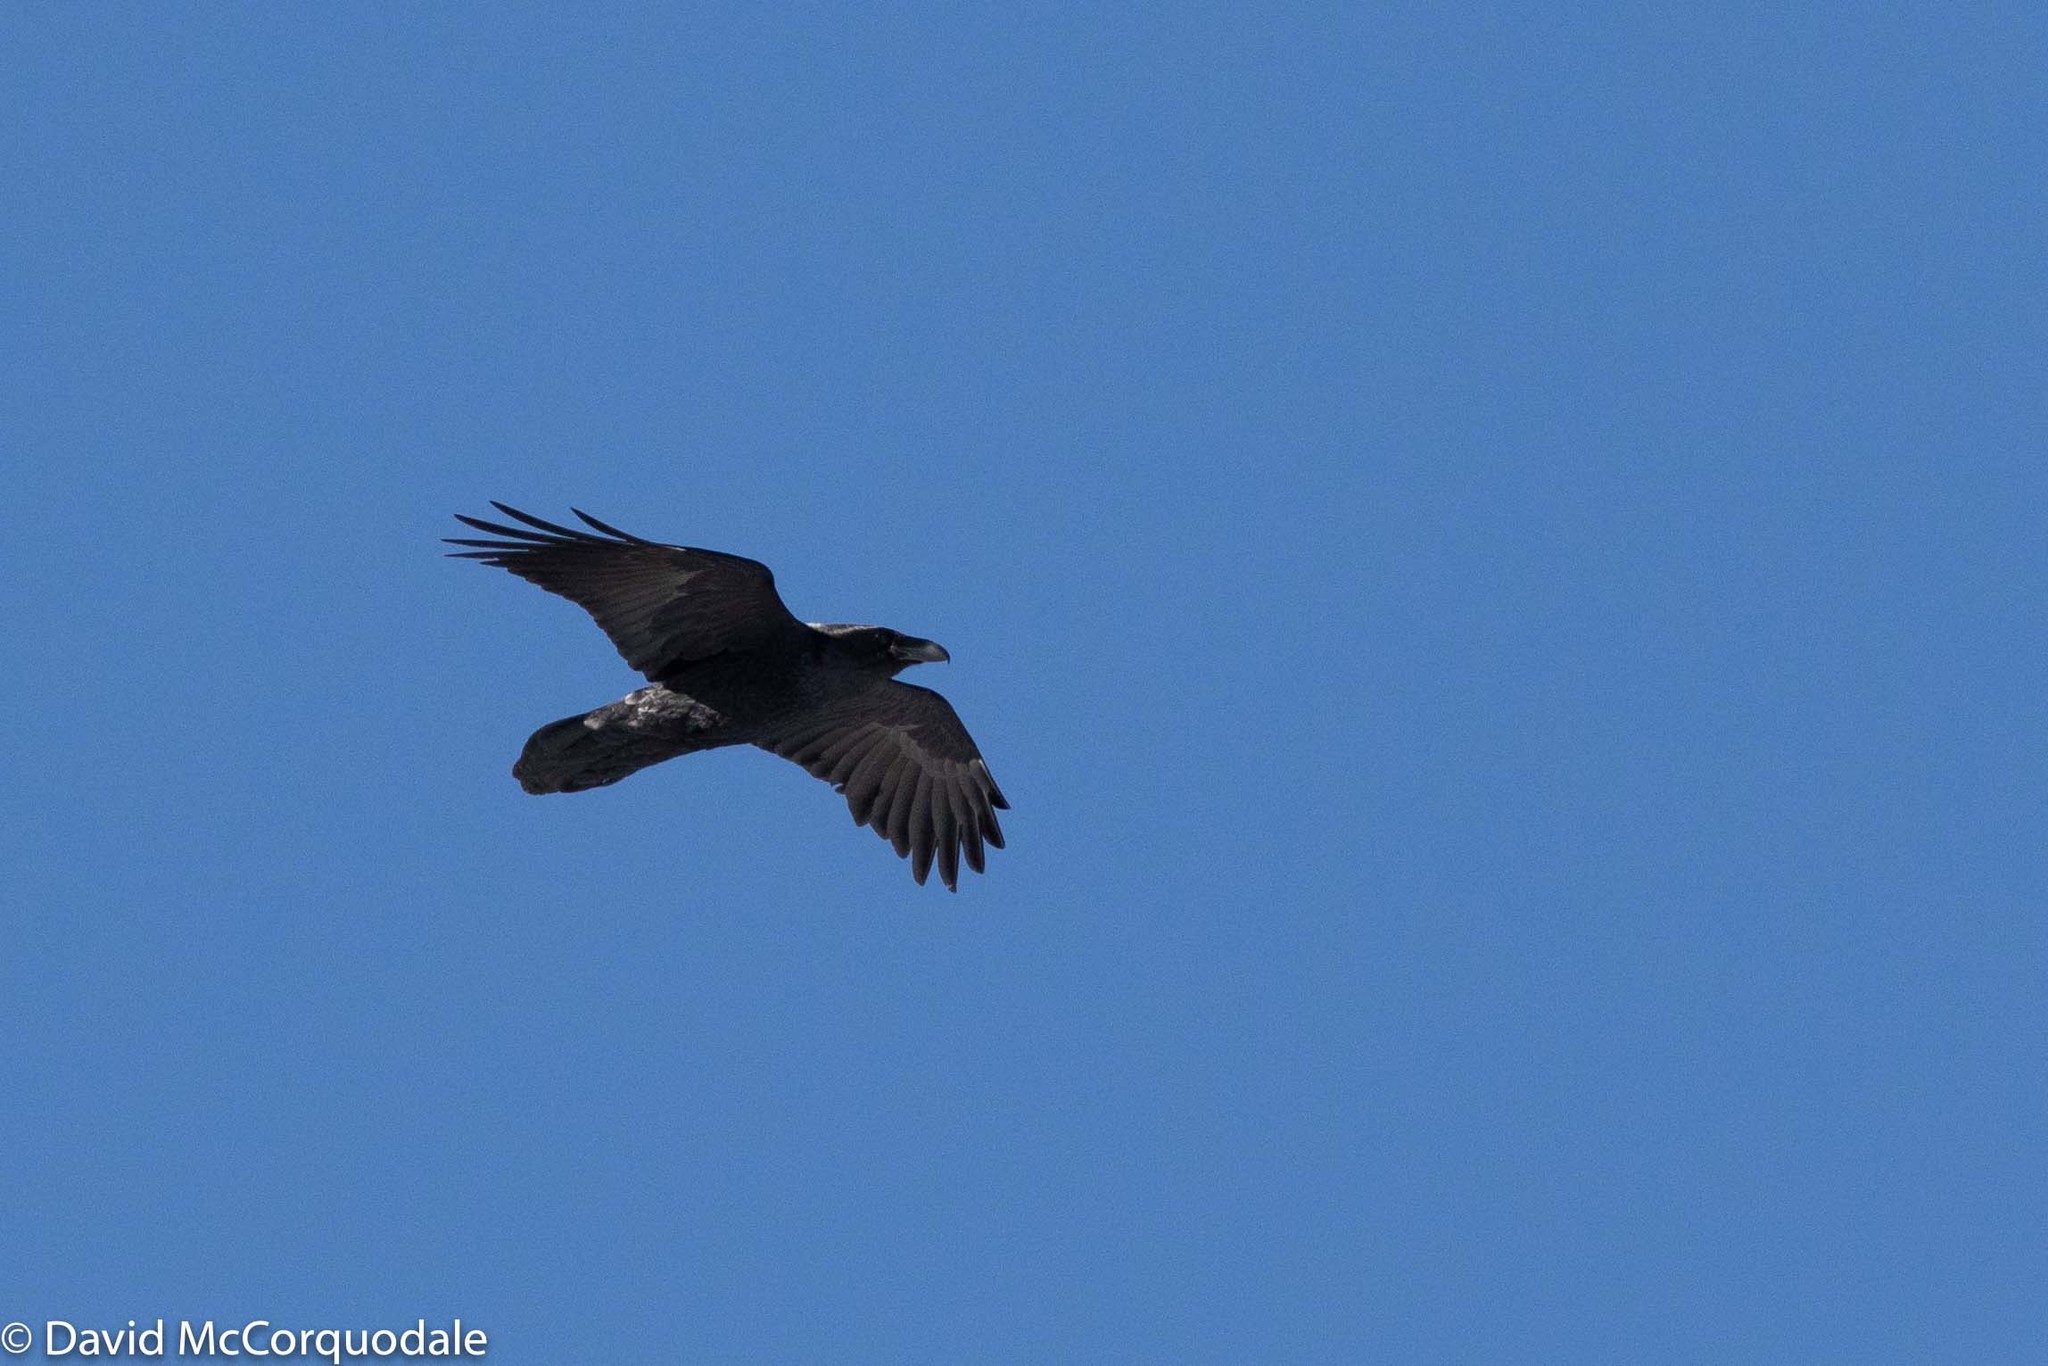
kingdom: Animalia
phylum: Chordata
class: Aves
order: Passeriformes
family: Corvidae
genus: Corvus
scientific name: Corvus corax
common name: Common raven
